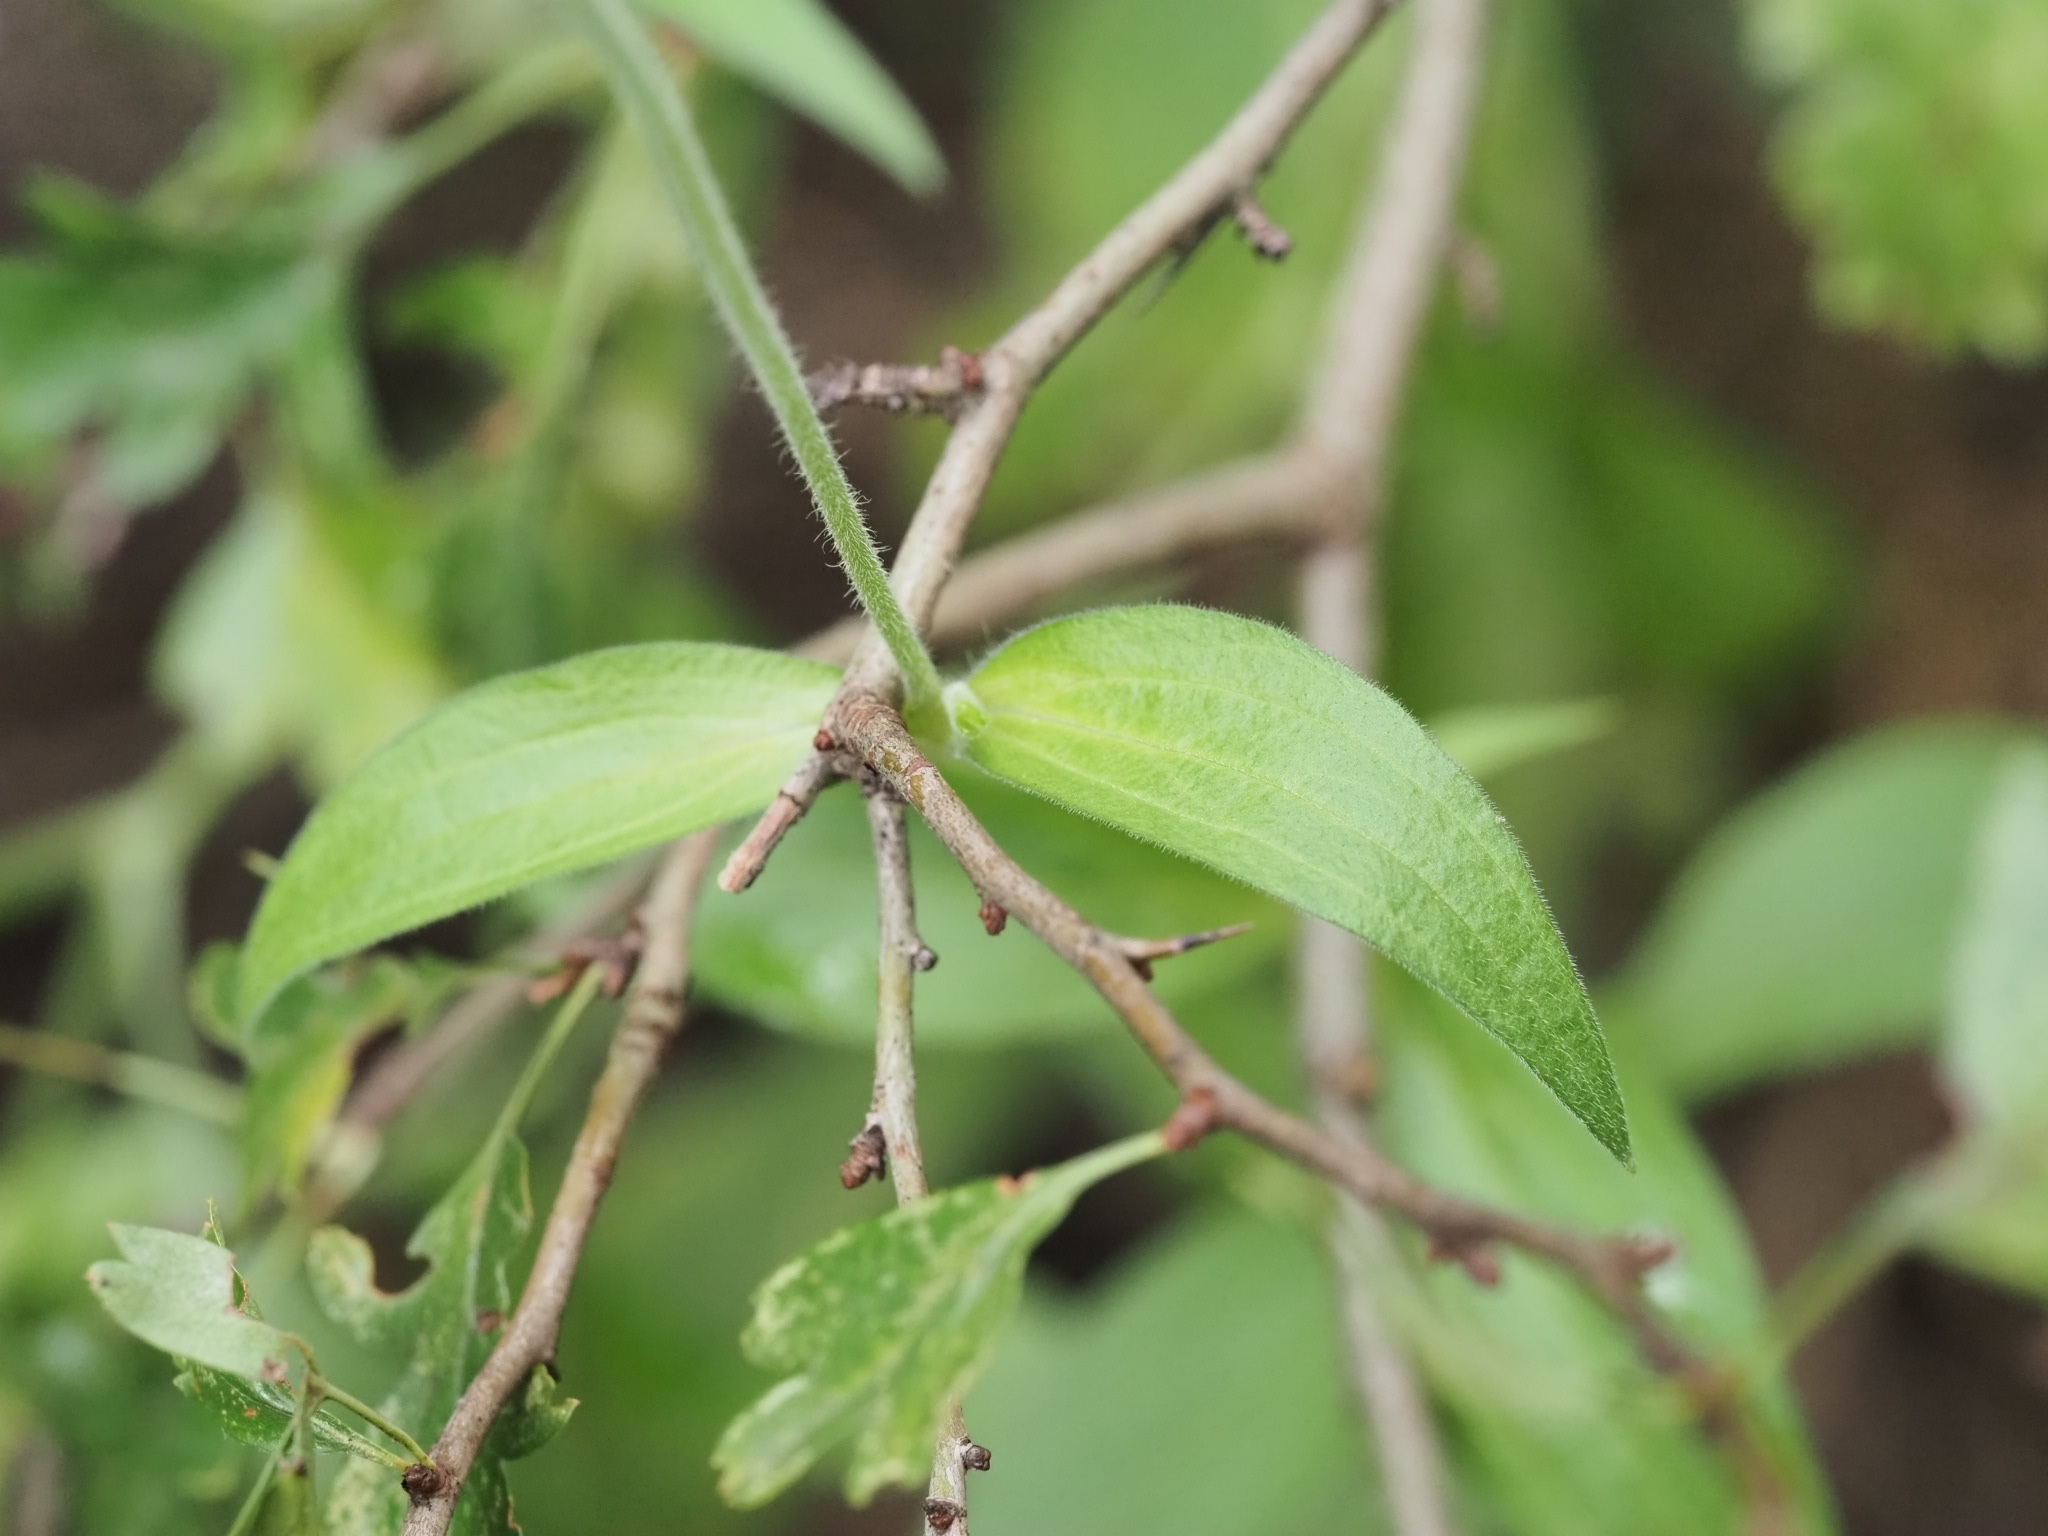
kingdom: Plantae
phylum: Tracheophyta
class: Magnoliopsida
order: Caryophyllales
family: Caryophyllaceae
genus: Silene
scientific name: Silene latifolia
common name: White campion
